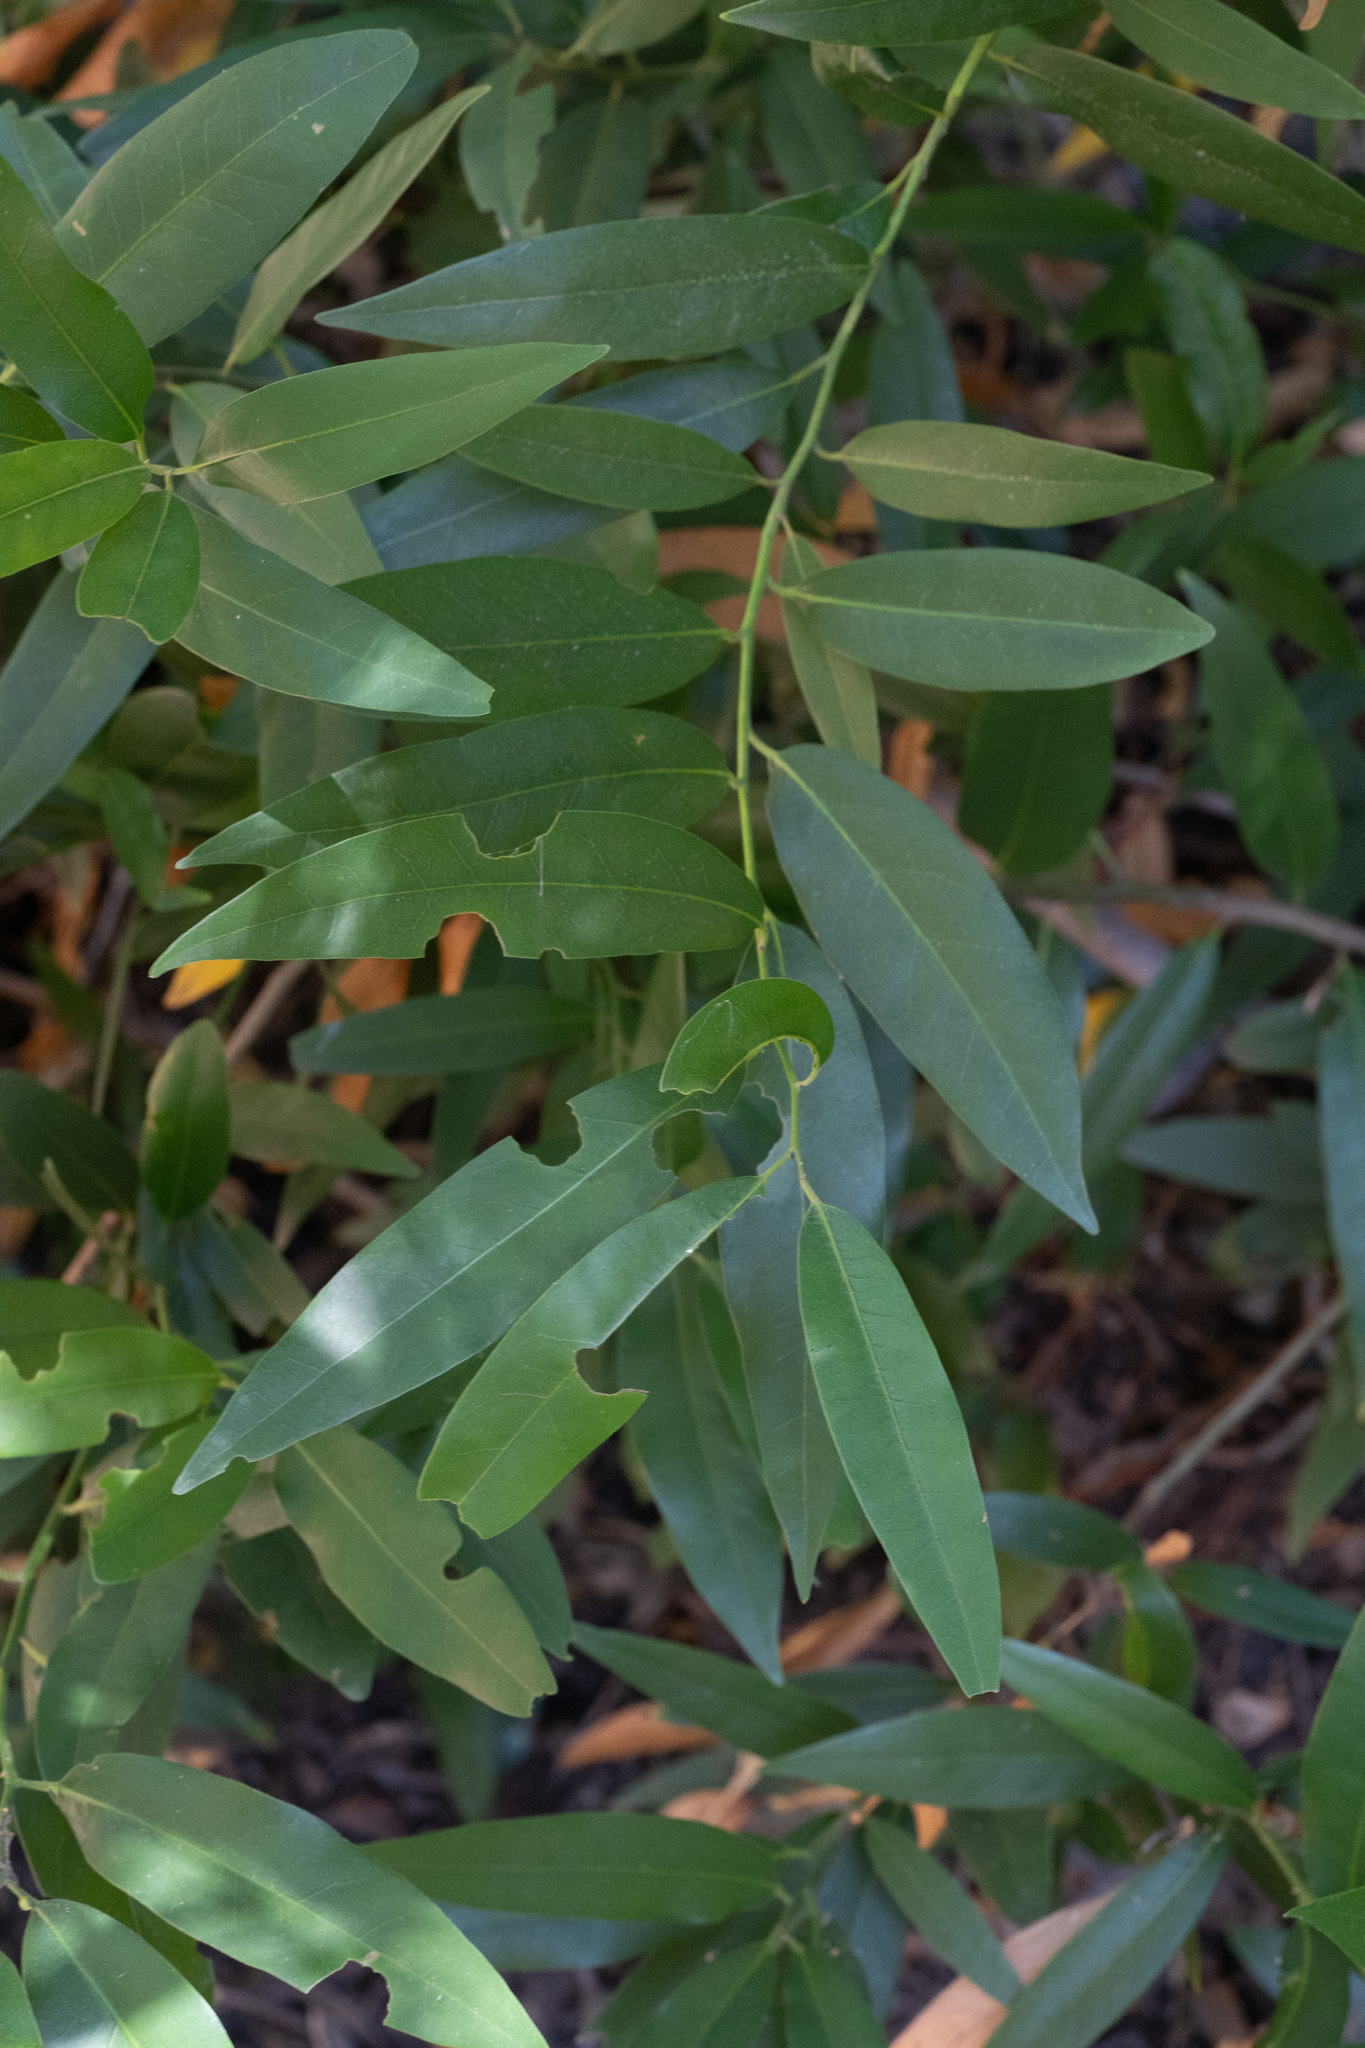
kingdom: Plantae
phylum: Tracheophyta
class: Magnoliopsida
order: Laurales
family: Lauraceae
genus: Umbellularia
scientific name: Umbellularia californica
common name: California bay
